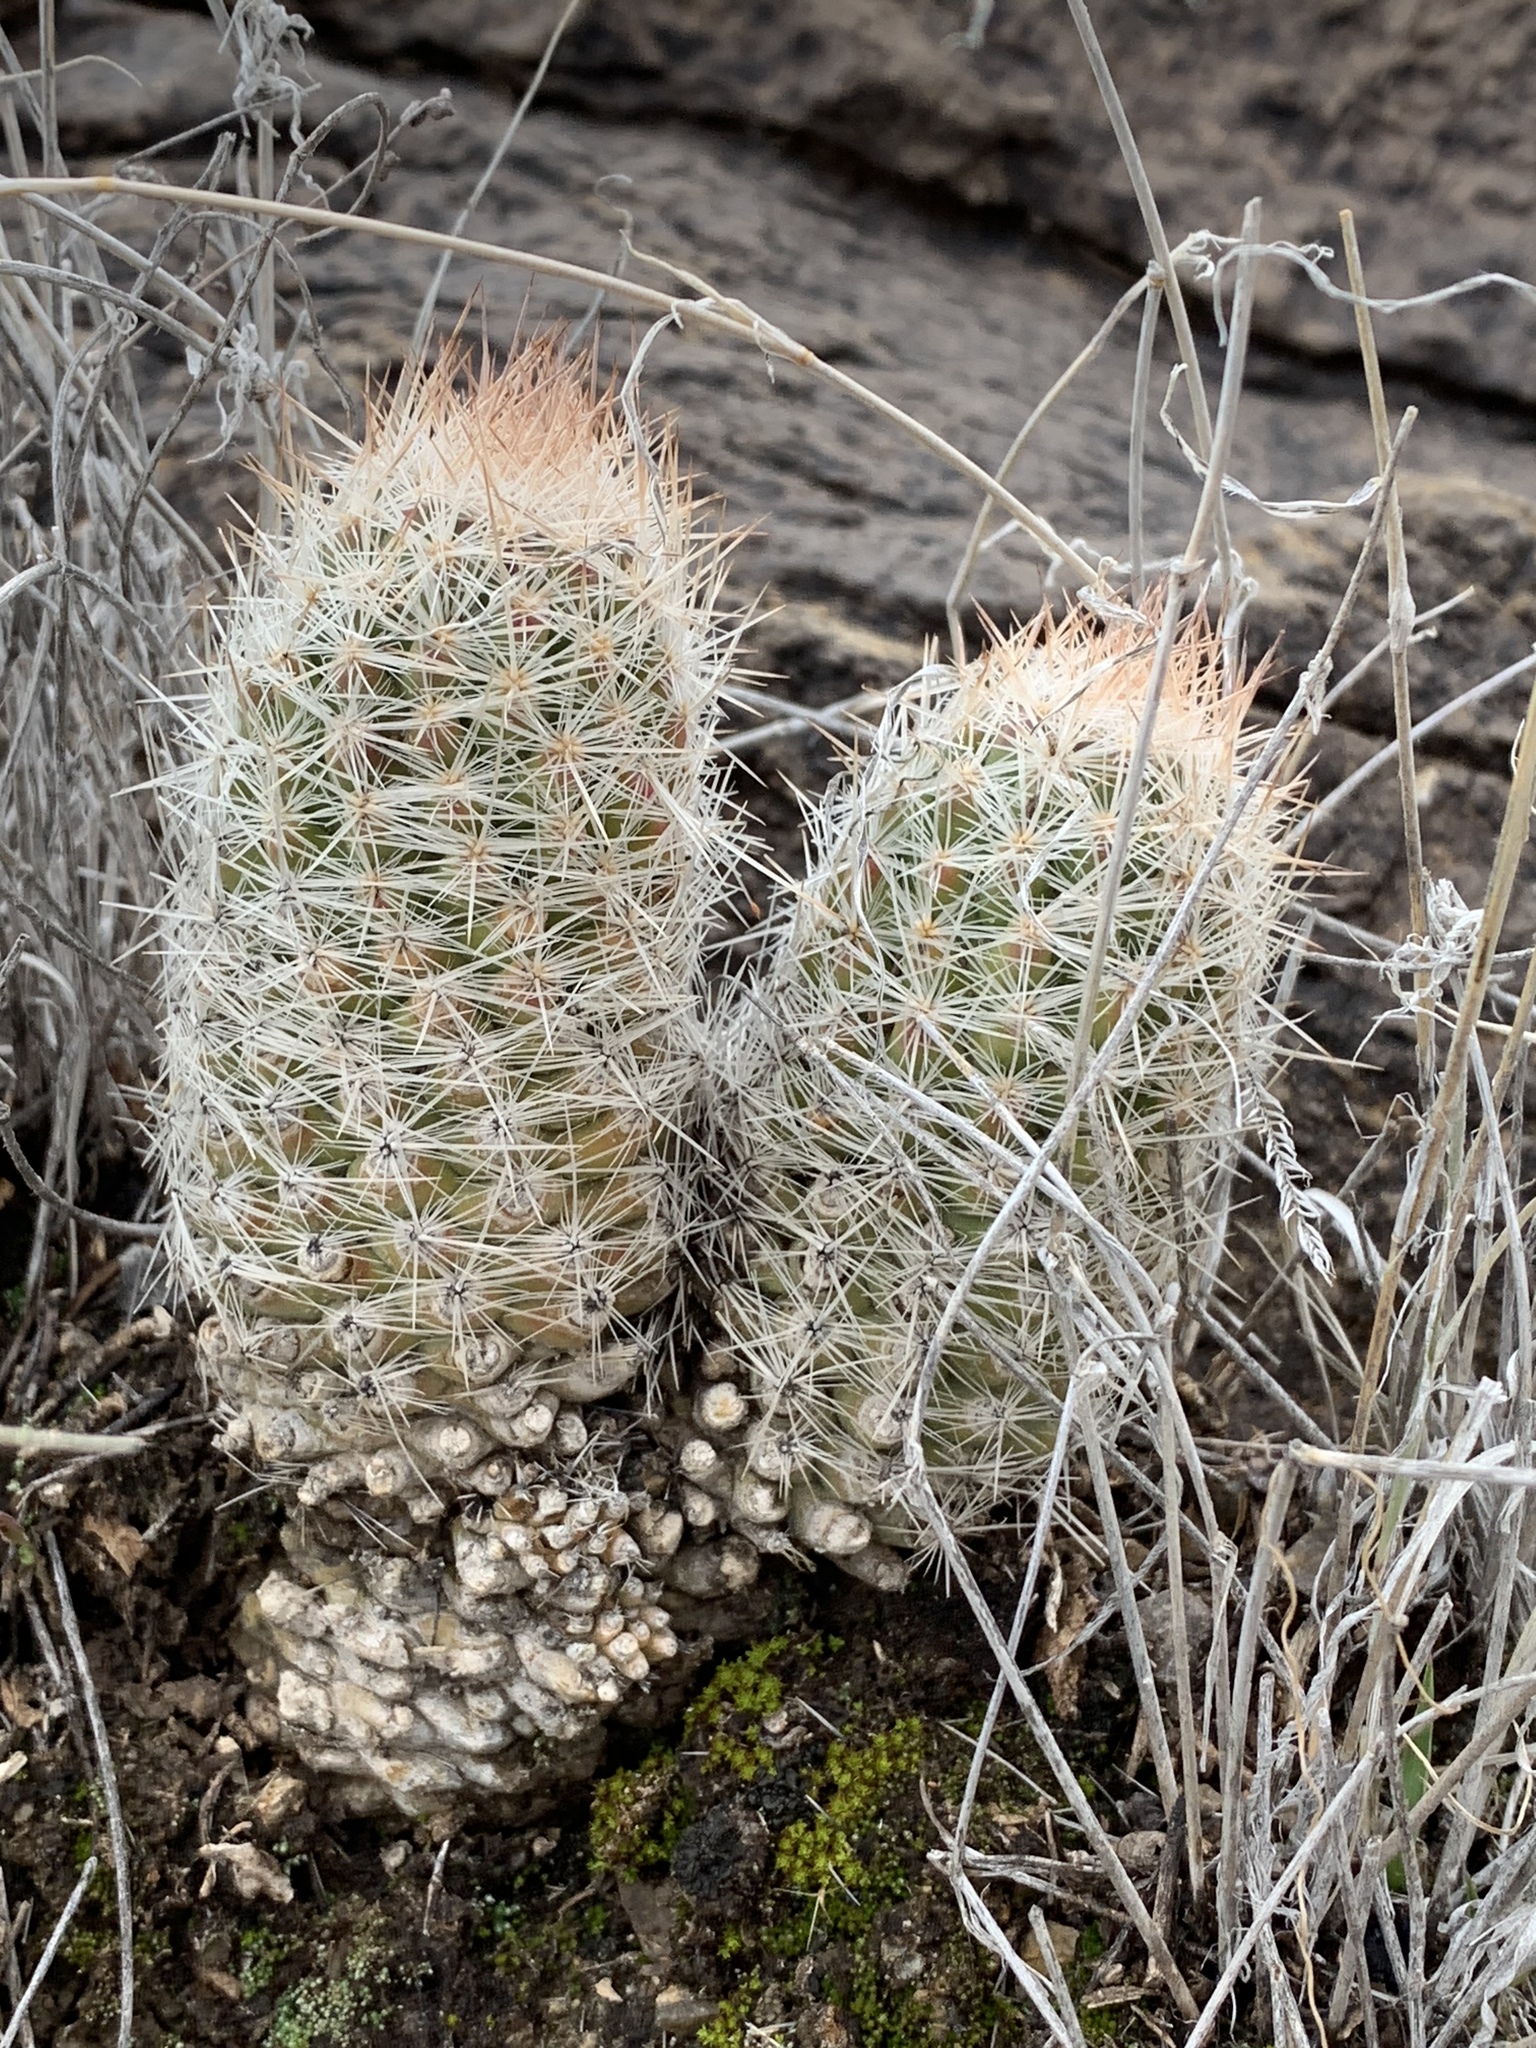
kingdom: Plantae
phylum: Tracheophyta
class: Magnoliopsida
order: Caryophyllales
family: Cactaceae
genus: Pelecyphora
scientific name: Pelecyphora tuberculosa
